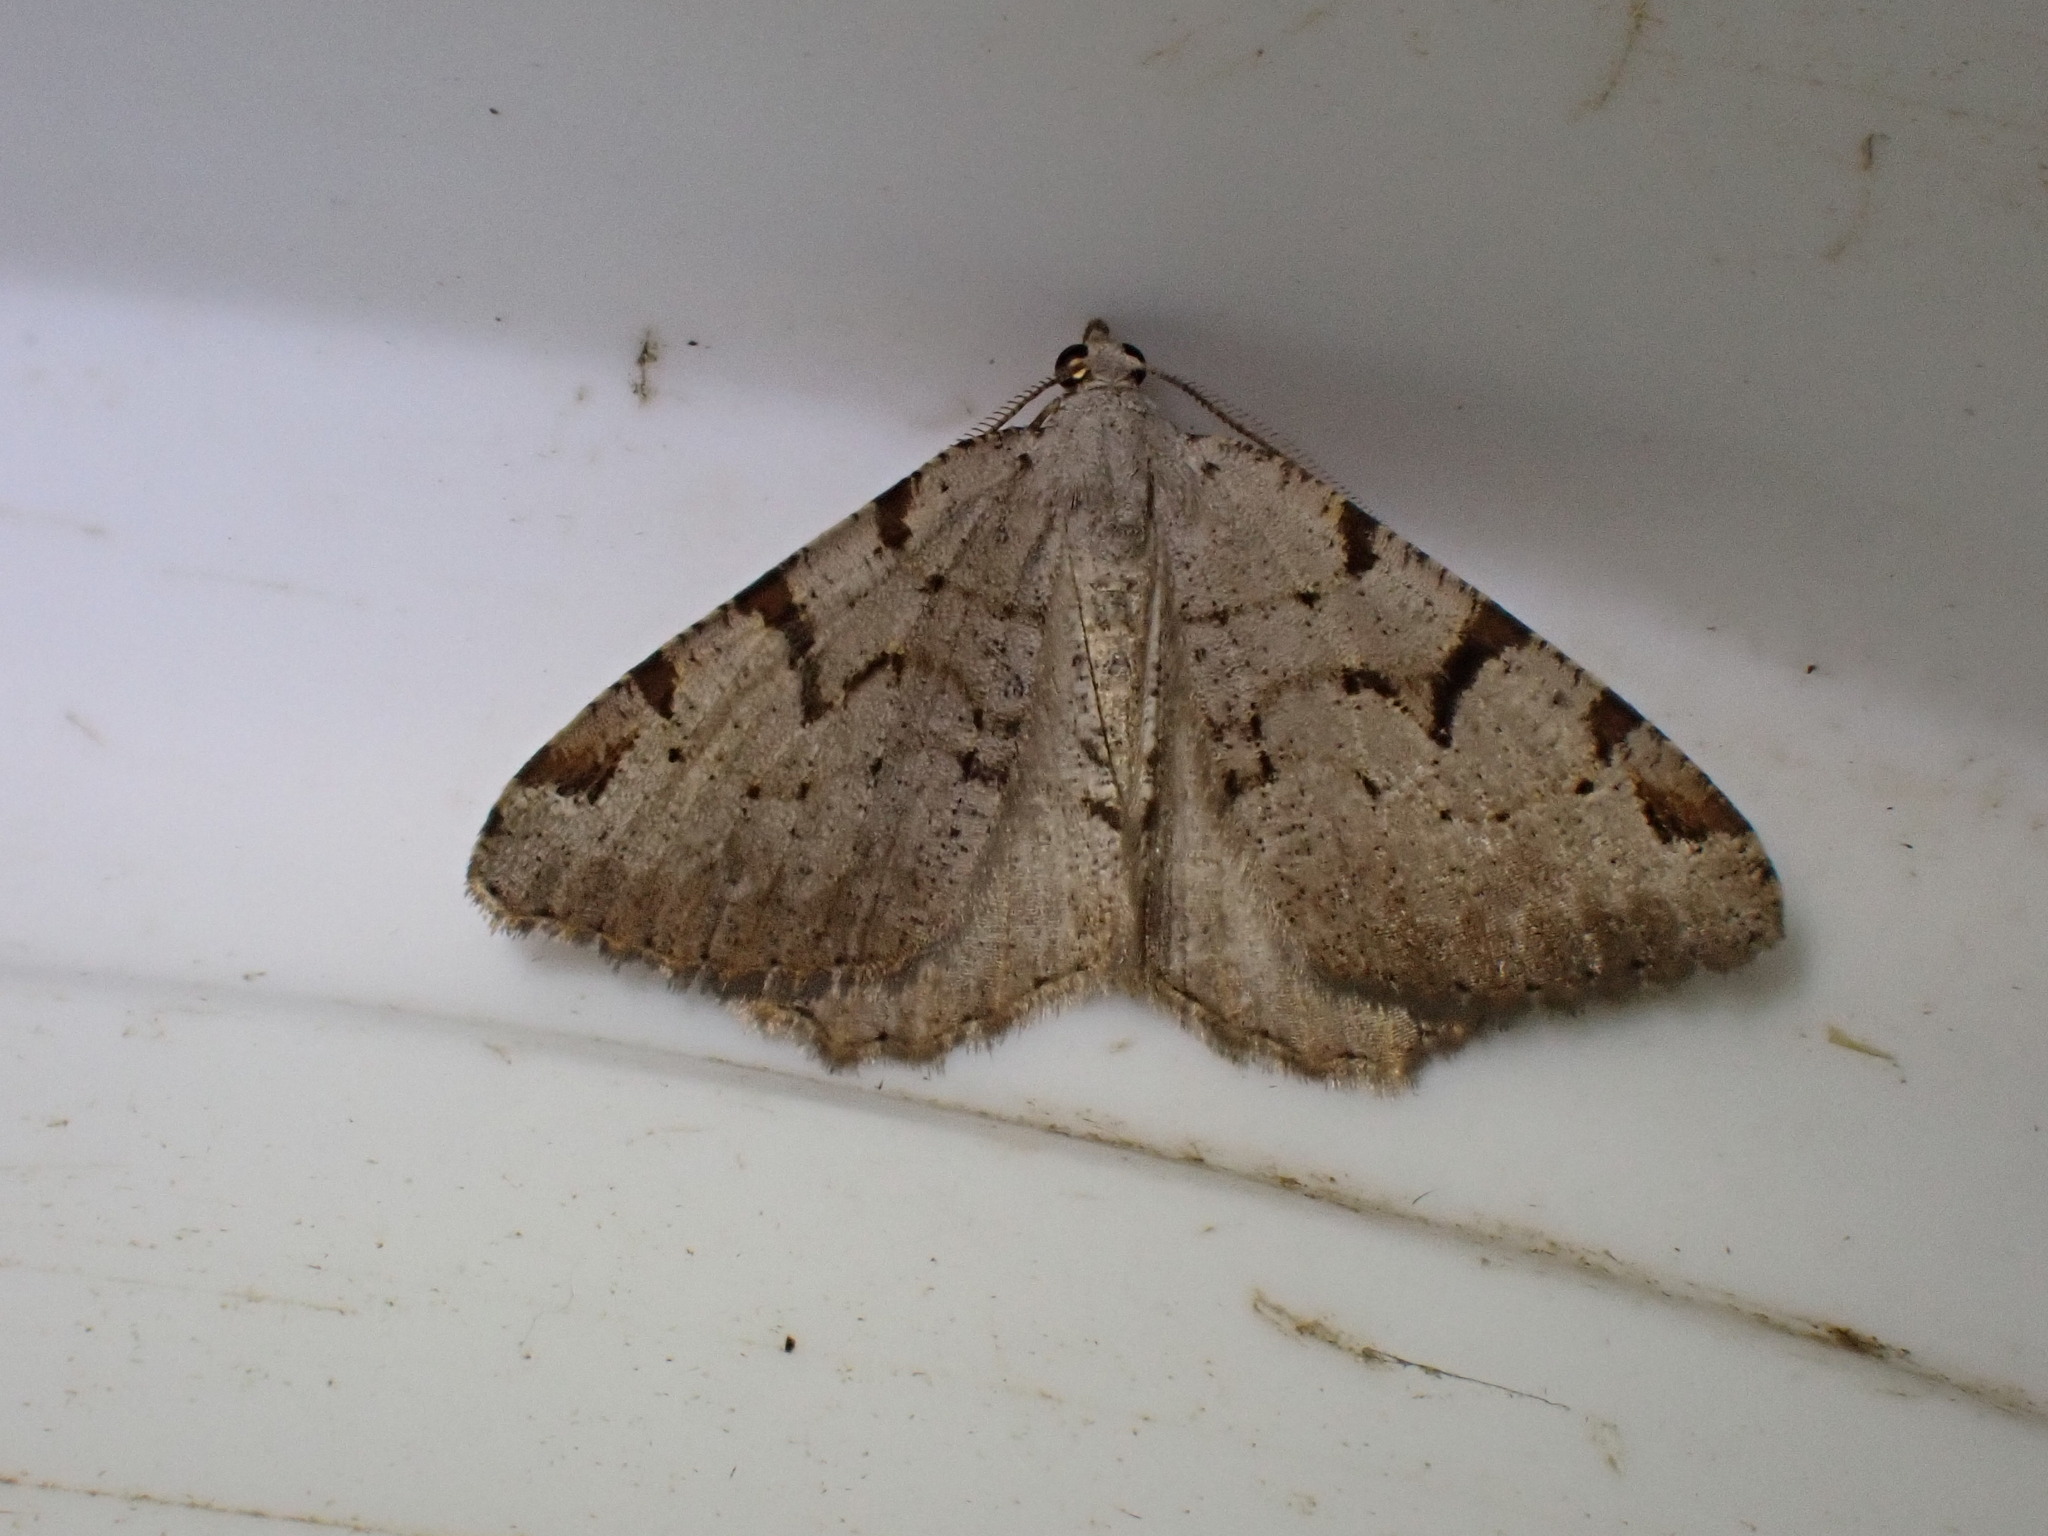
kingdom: Animalia
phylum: Arthropoda
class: Insecta
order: Lepidoptera
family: Geometridae
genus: Macaria
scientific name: Macaria wauaria
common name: V-moth
